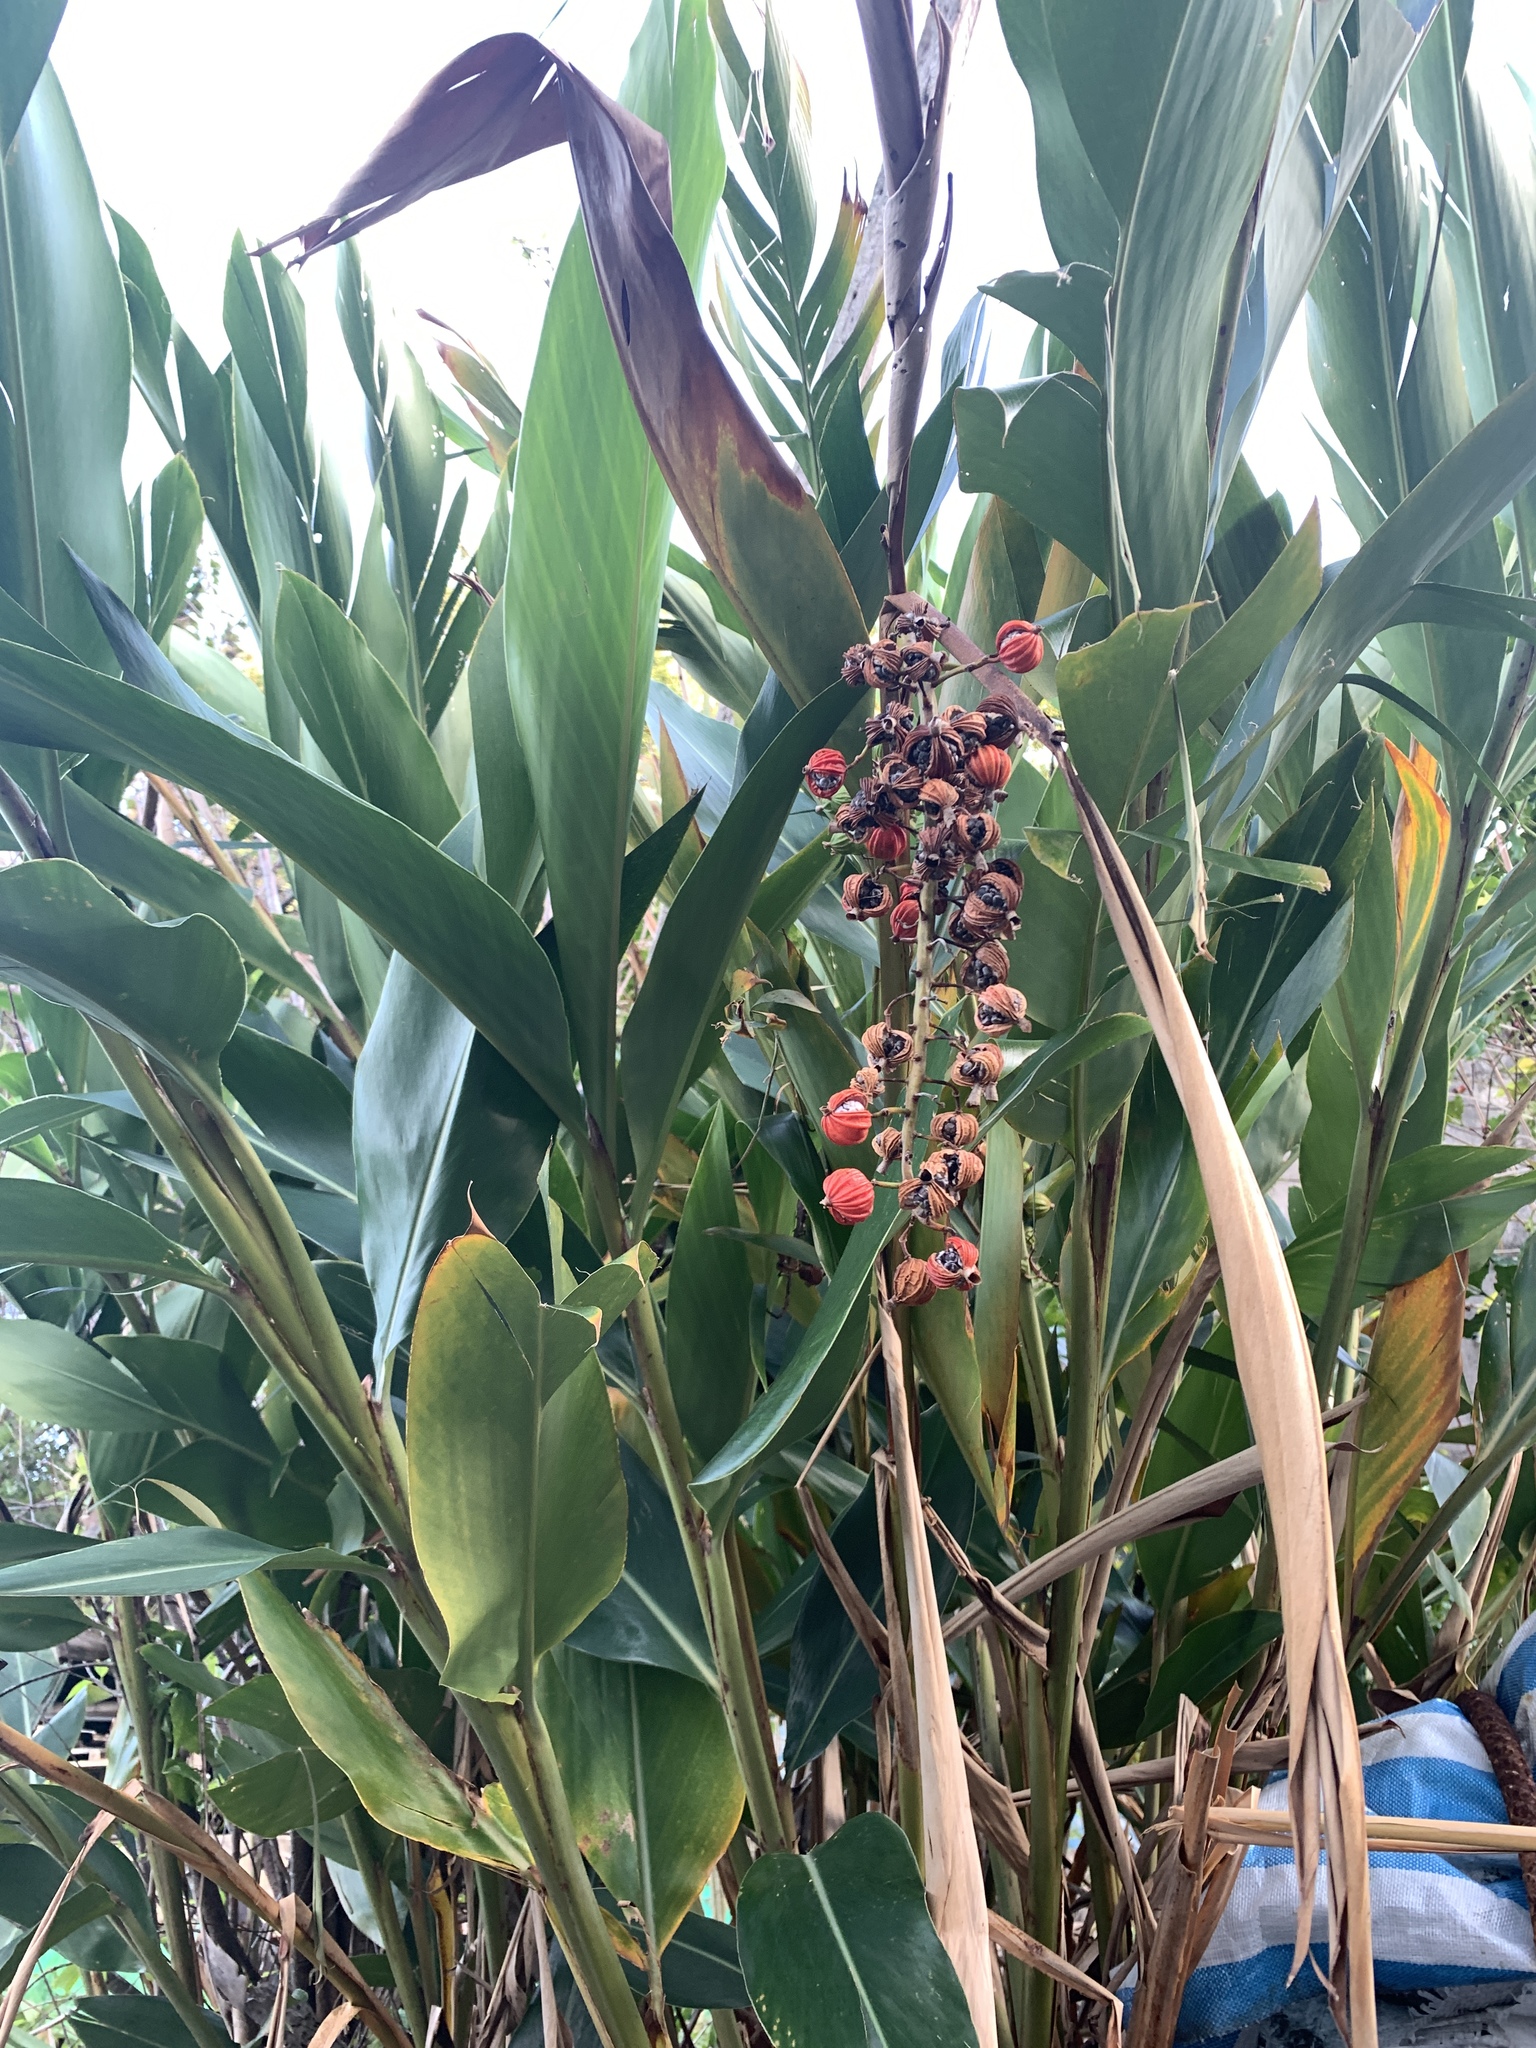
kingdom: Plantae
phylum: Tracheophyta
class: Liliopsida
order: Zingiberales
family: Zingiberaceae
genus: Alpinia
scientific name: Alpinia zerumbet
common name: Shellplant
